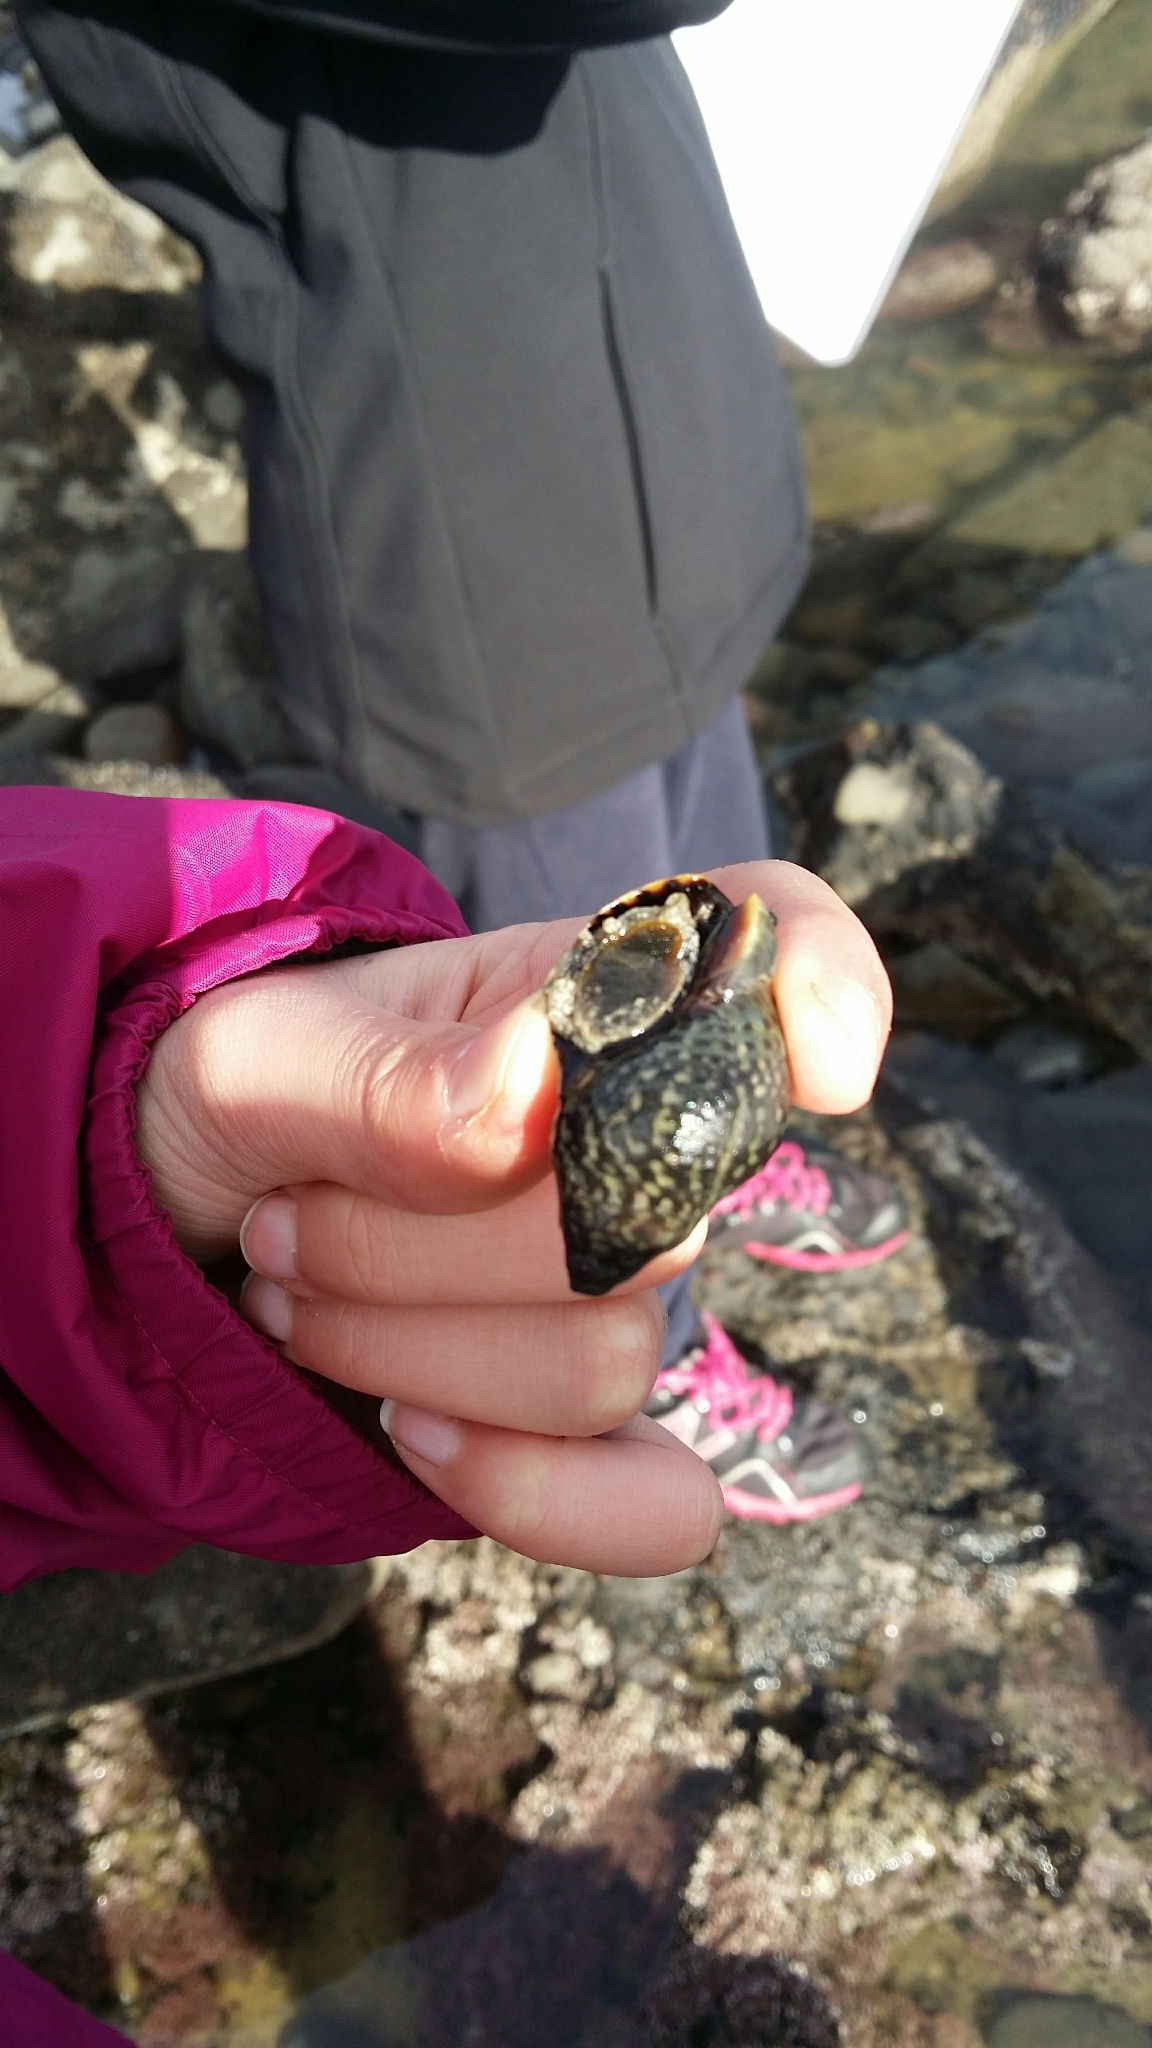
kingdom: Animalia
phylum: Mollusca
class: Gastropoda
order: Neogastropoda
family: Cominellidae
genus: Cominella
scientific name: Cominella maculosa
